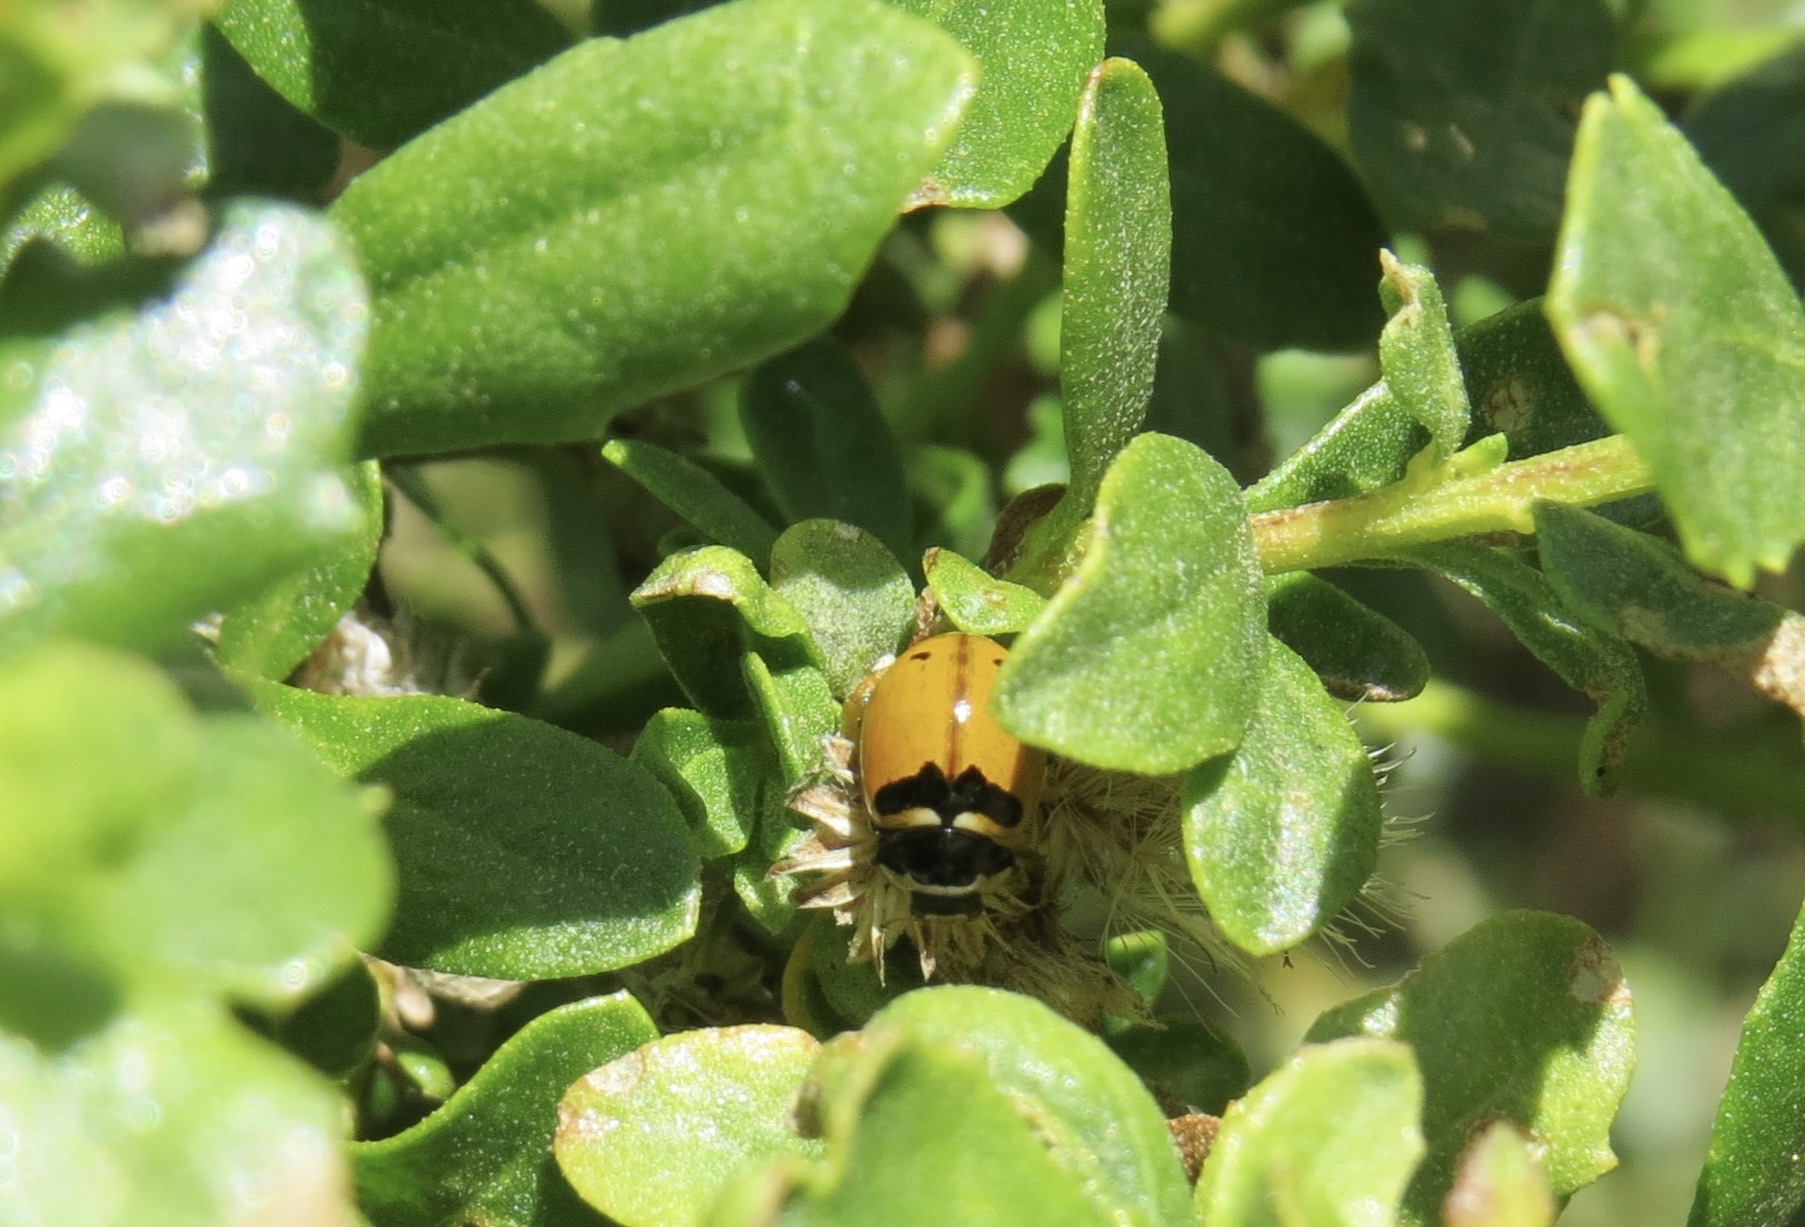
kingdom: Animalia
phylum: Arthropoda
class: Insecta
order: Coleoptera
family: Coccinellidae
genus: Coccinella
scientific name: Coccinella trifasciata
